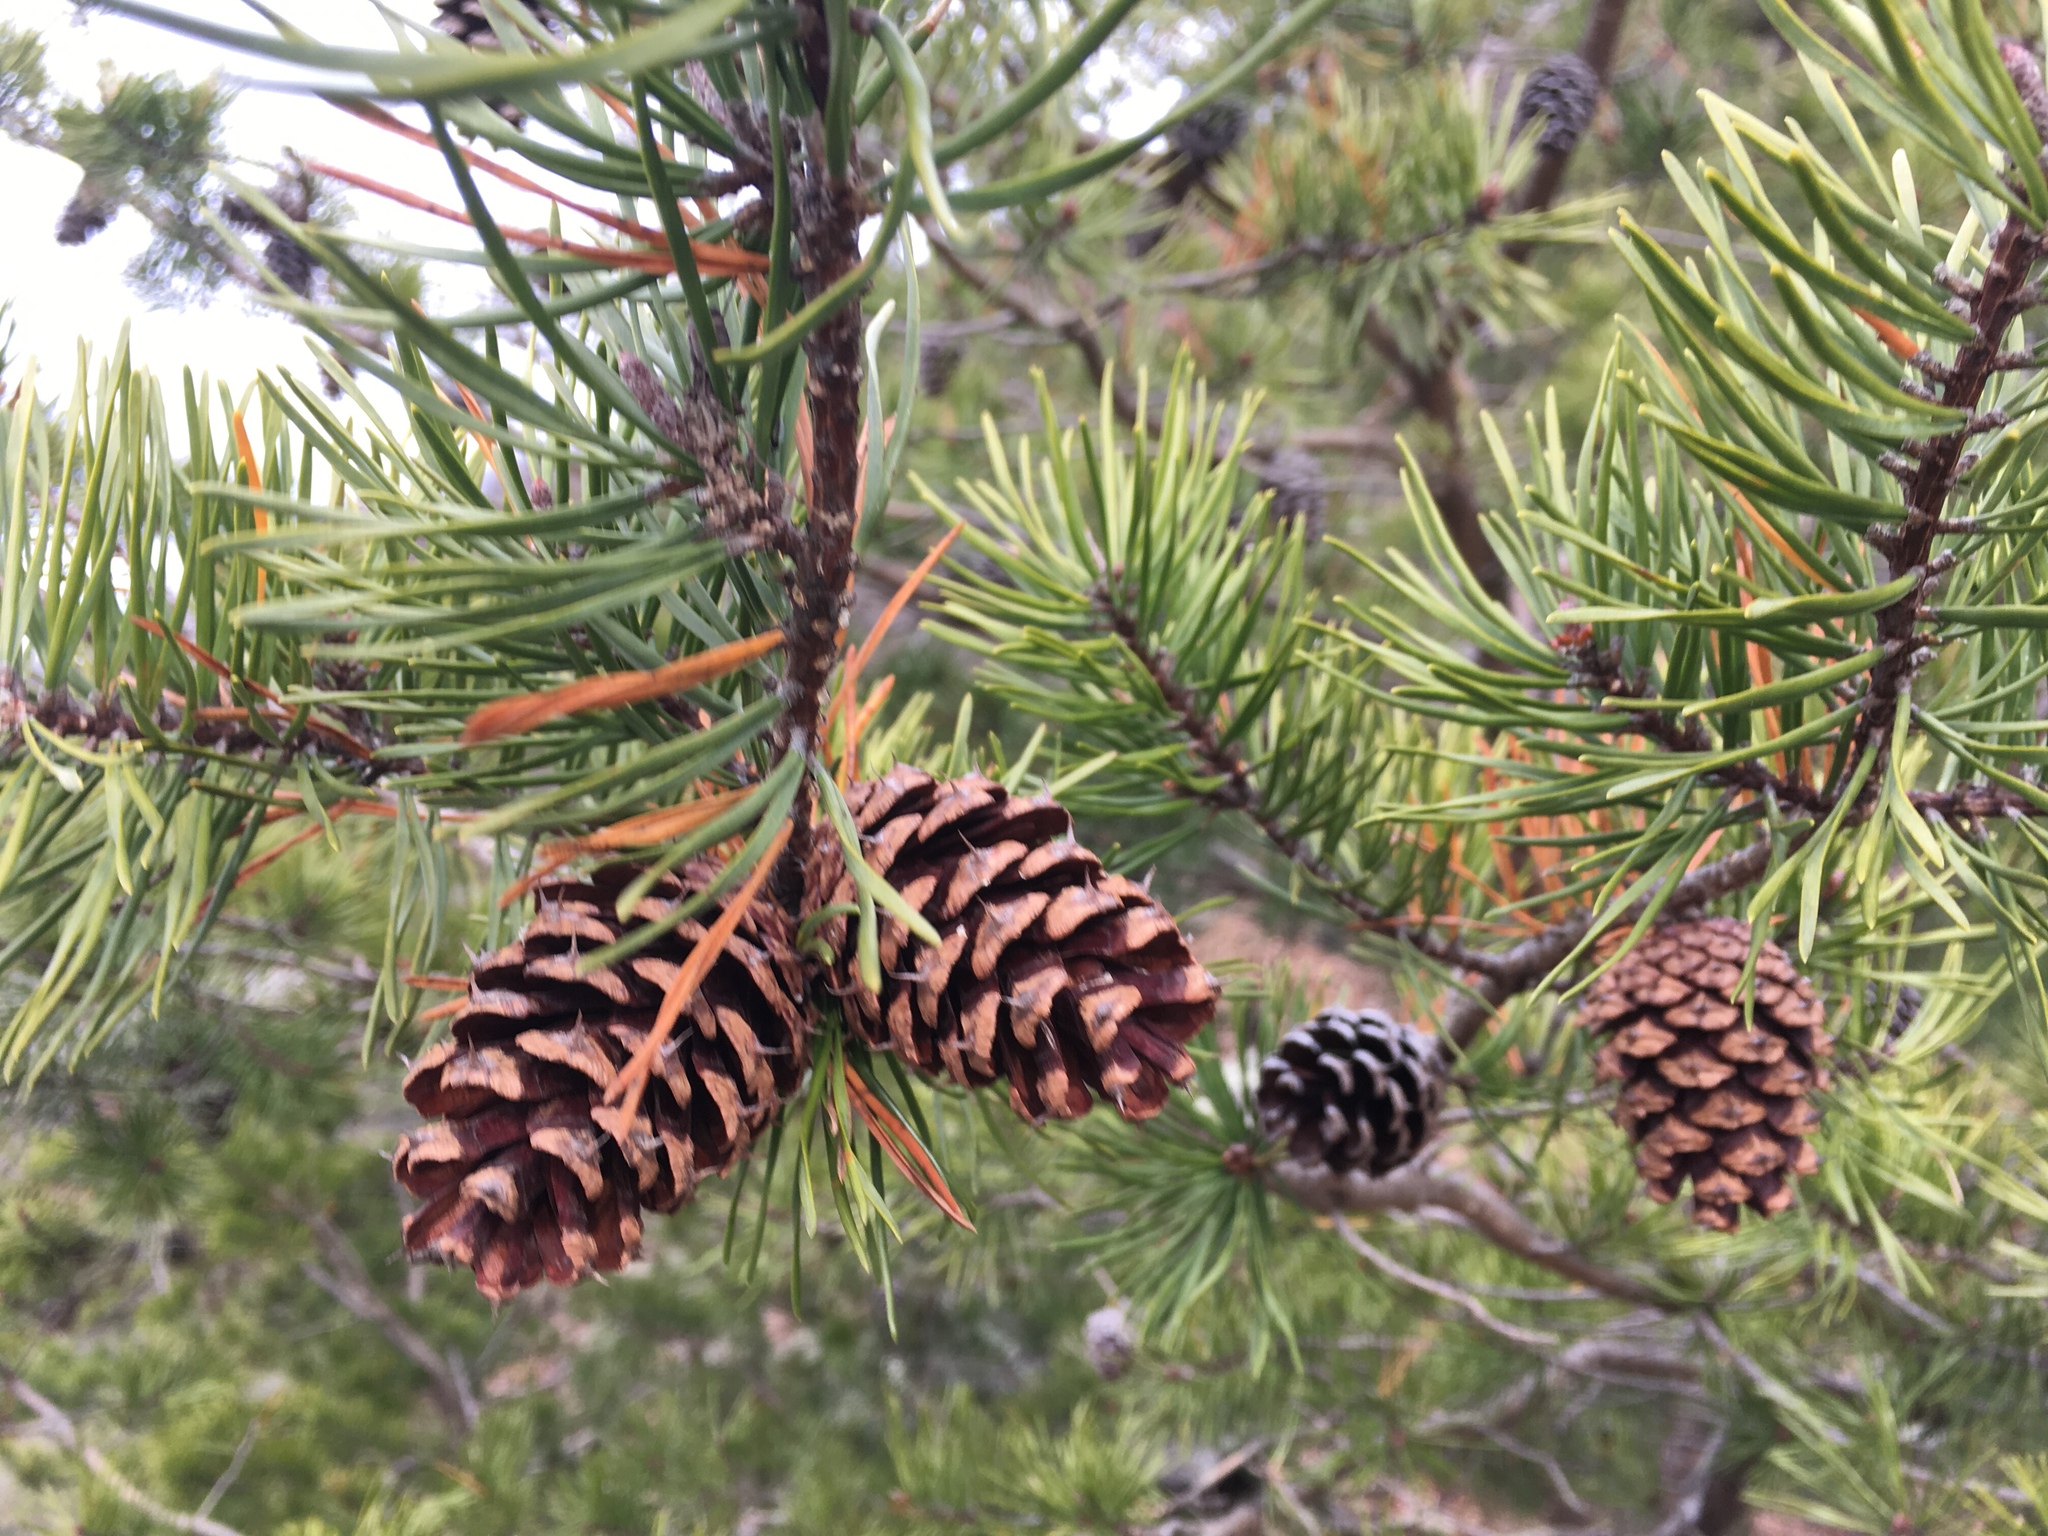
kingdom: Plantae
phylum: Tracheophyta
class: Pinopsida
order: Pinales
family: Pinaceae
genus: Pinus
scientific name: Pinus virginiana
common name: Scrub pine
